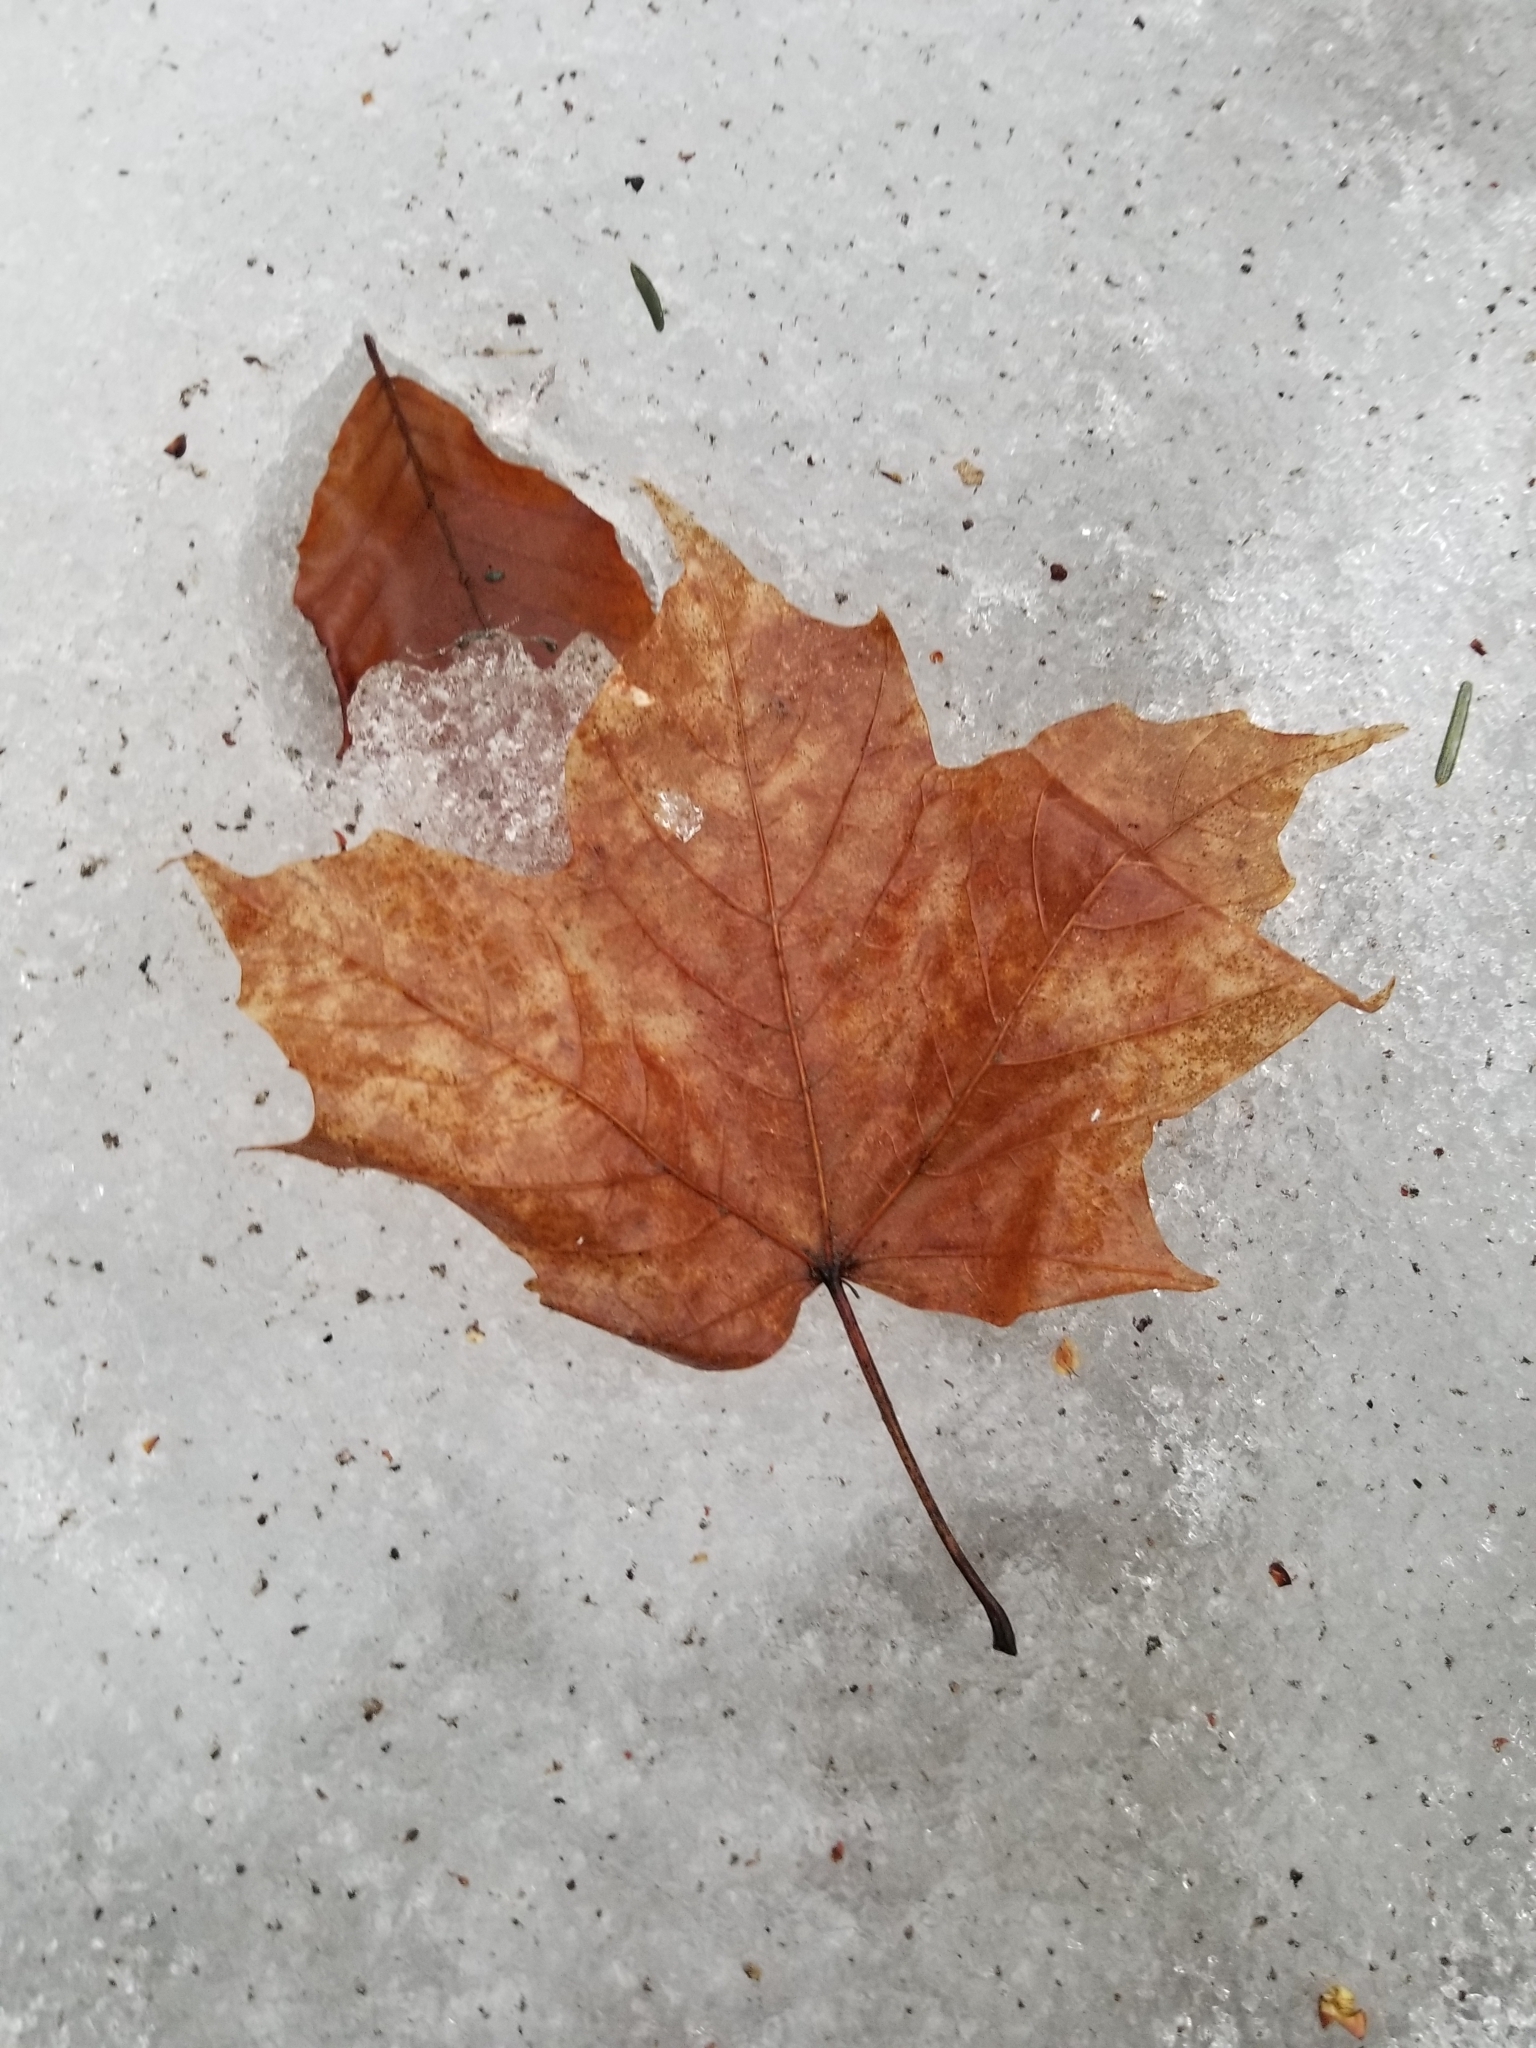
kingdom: Plantae
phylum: Tracheophyta
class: Magnoliopsida
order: Sapindales
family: Sapindaceae
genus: Acer
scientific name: Acer saccharum
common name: Sugar maple
